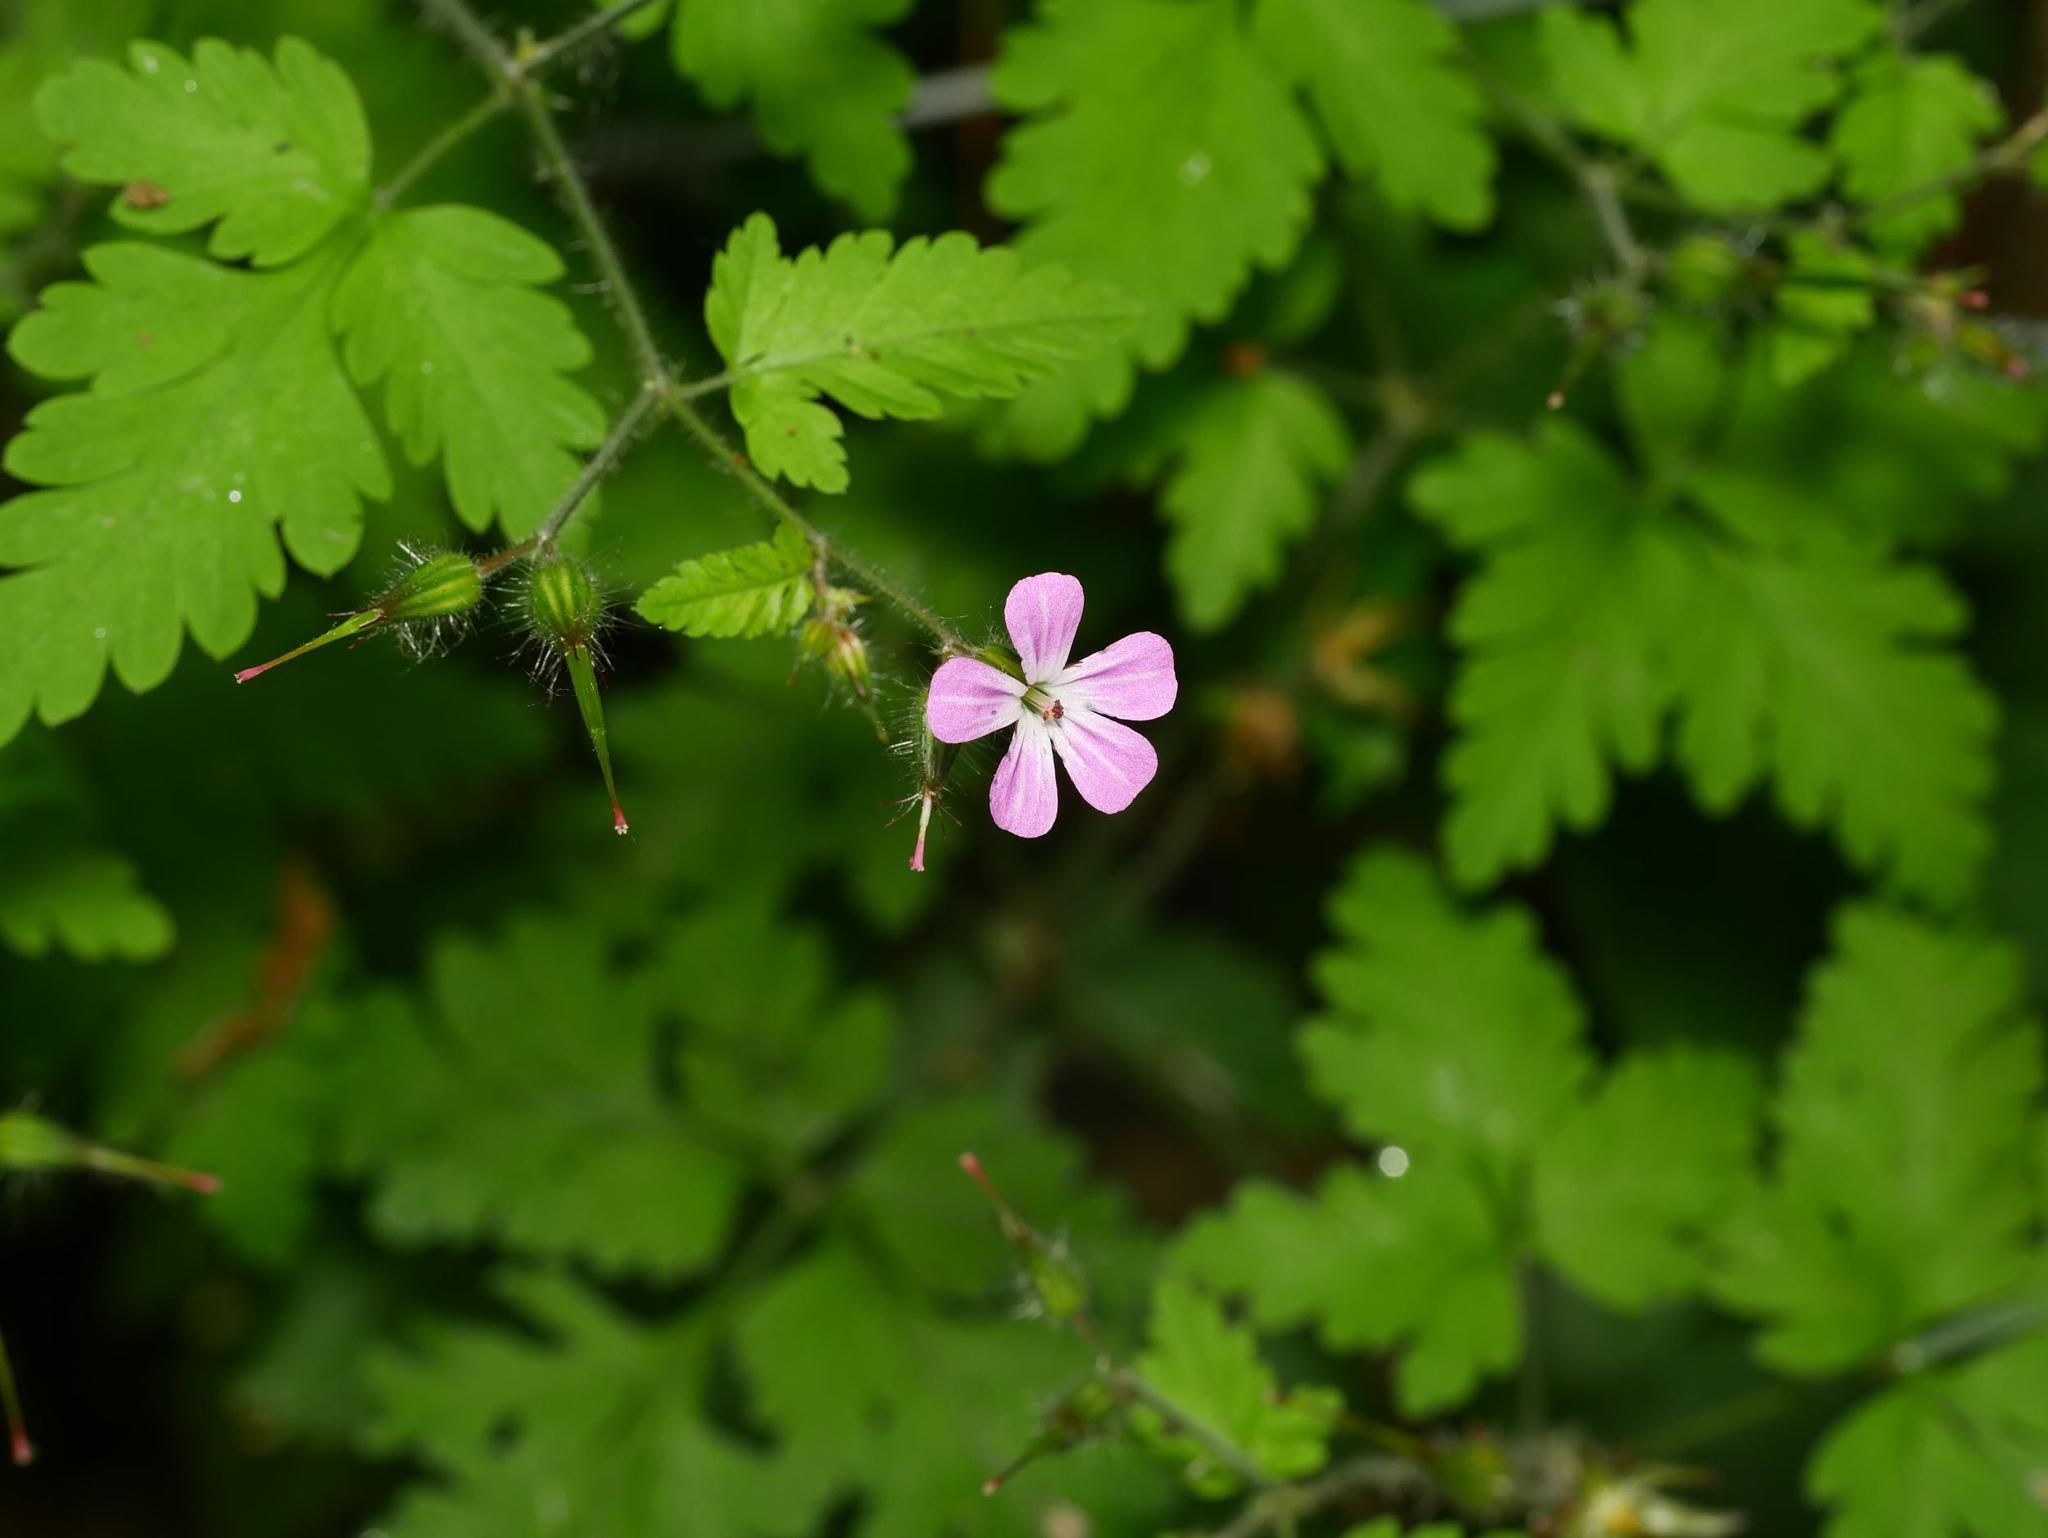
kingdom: Plantae
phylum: Tracheophyta
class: Magnoliopsida
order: Geraniales
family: Geraniaceae
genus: Geranium
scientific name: Geranium robertianum
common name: Herb-robert
